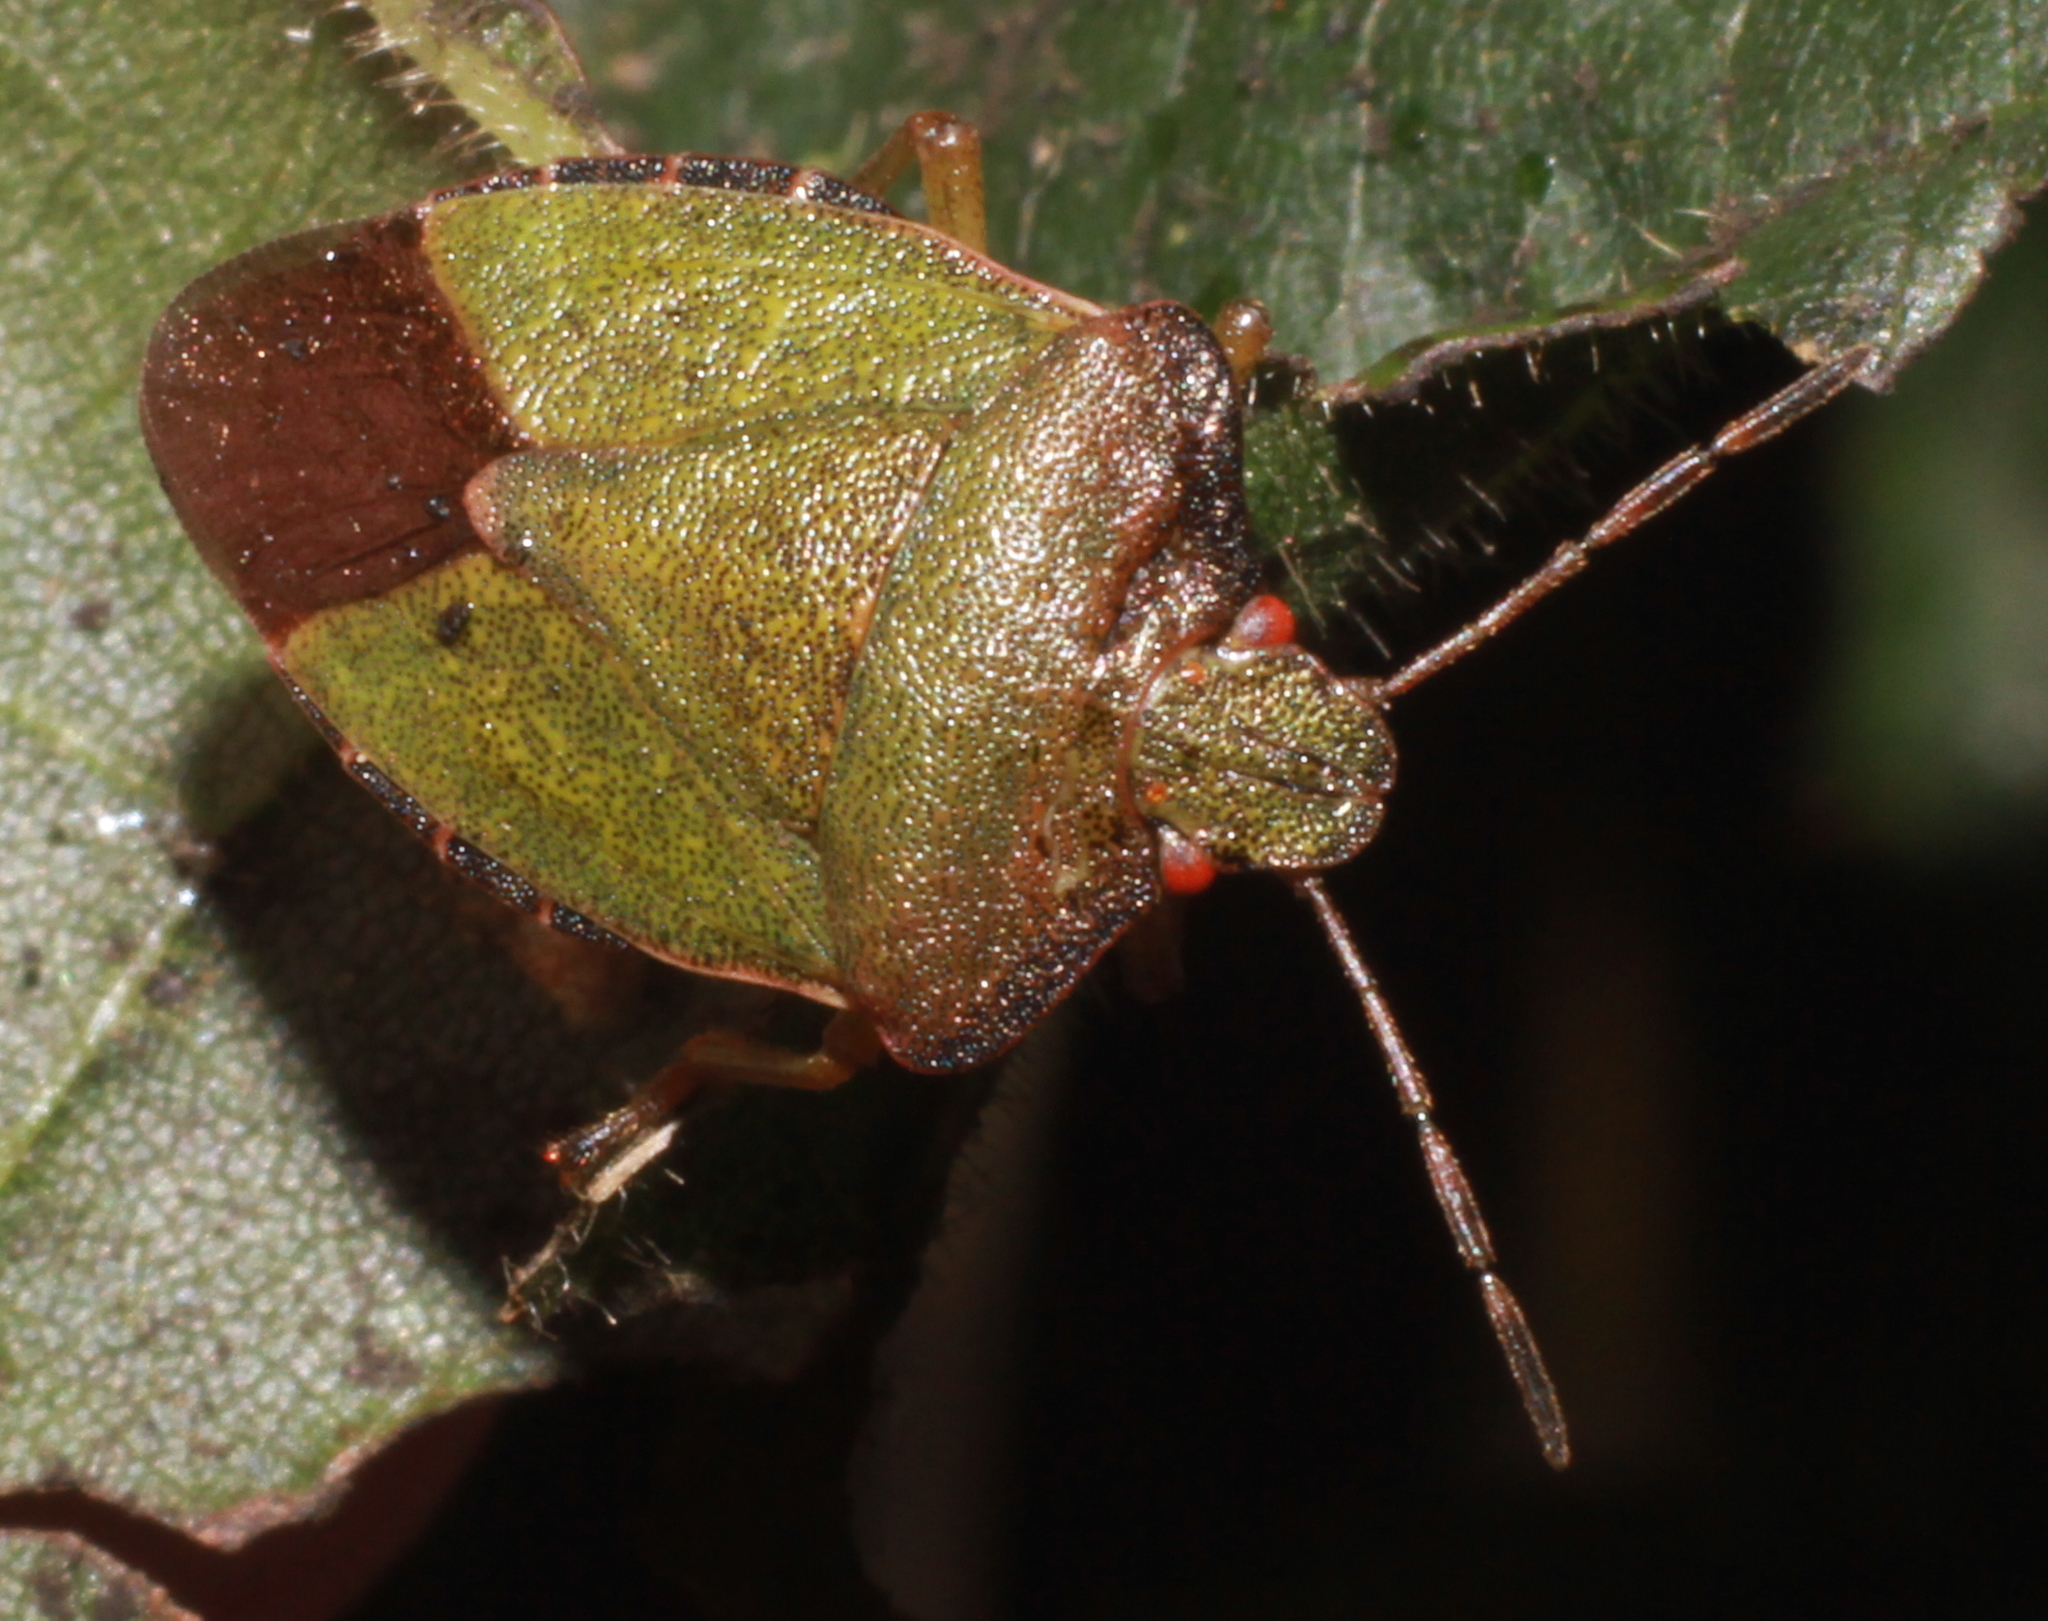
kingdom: Animalia
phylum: Arthropoda
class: Insecta
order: Hemiptera
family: Pentatomidae
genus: Palomena
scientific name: Palomena prasina
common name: Green shieldbug
